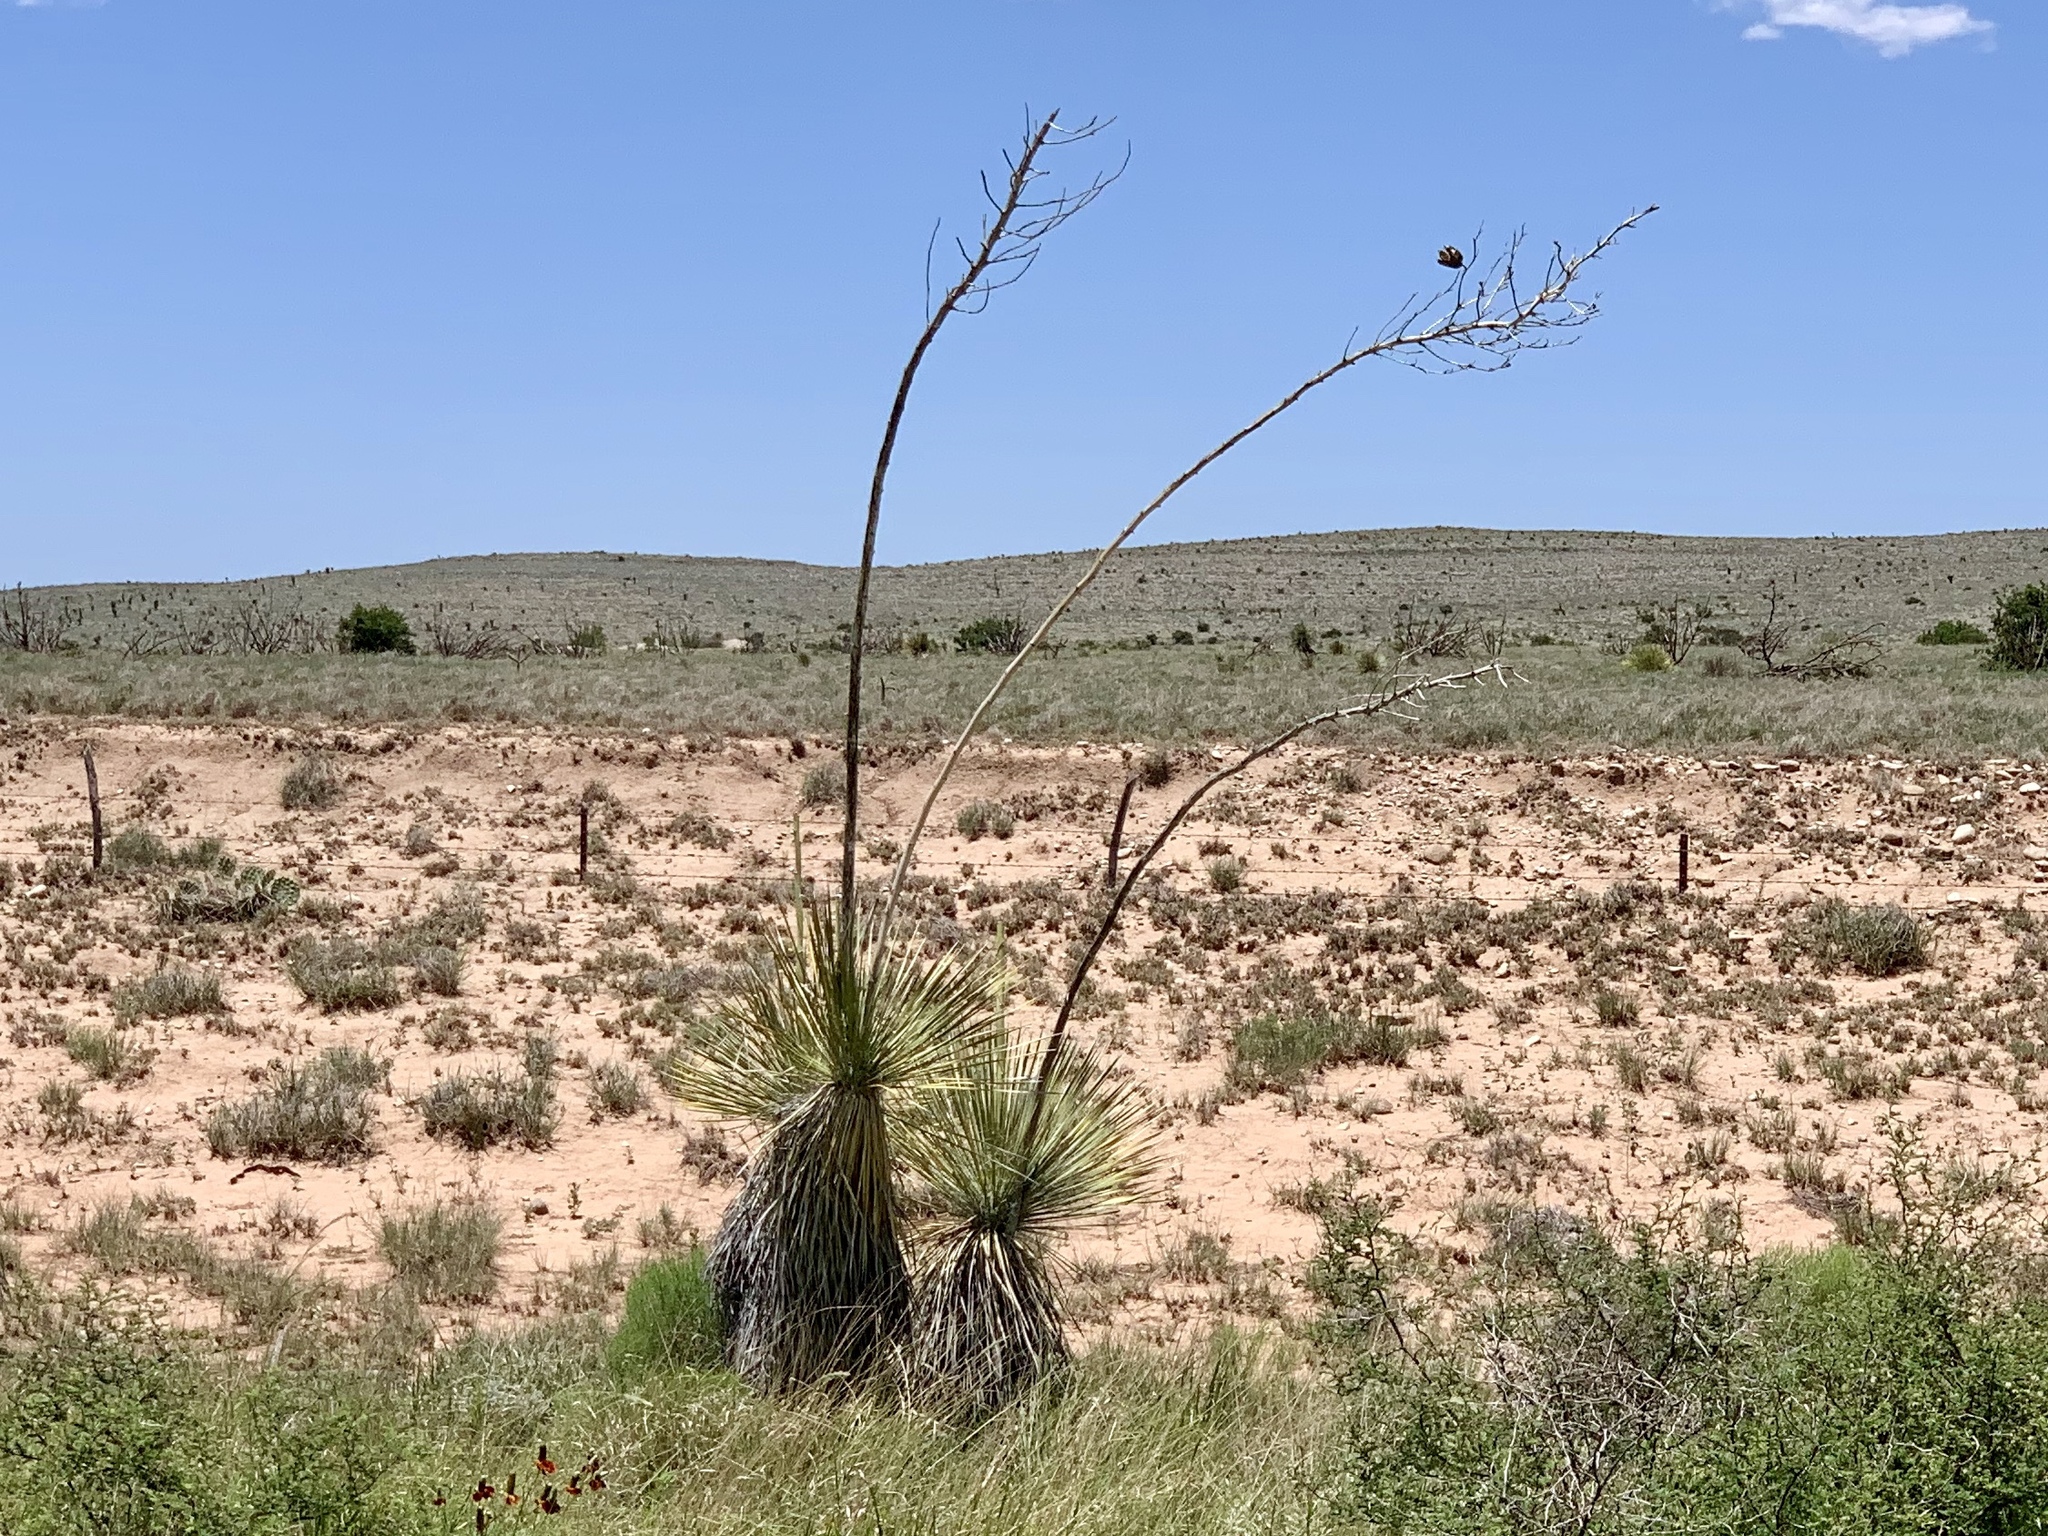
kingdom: Plantae
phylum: Tracheophyta
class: Liliopsida
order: Asparagales
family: Asparagaceae
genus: Yucca
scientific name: Yucca elata
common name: Palmella
